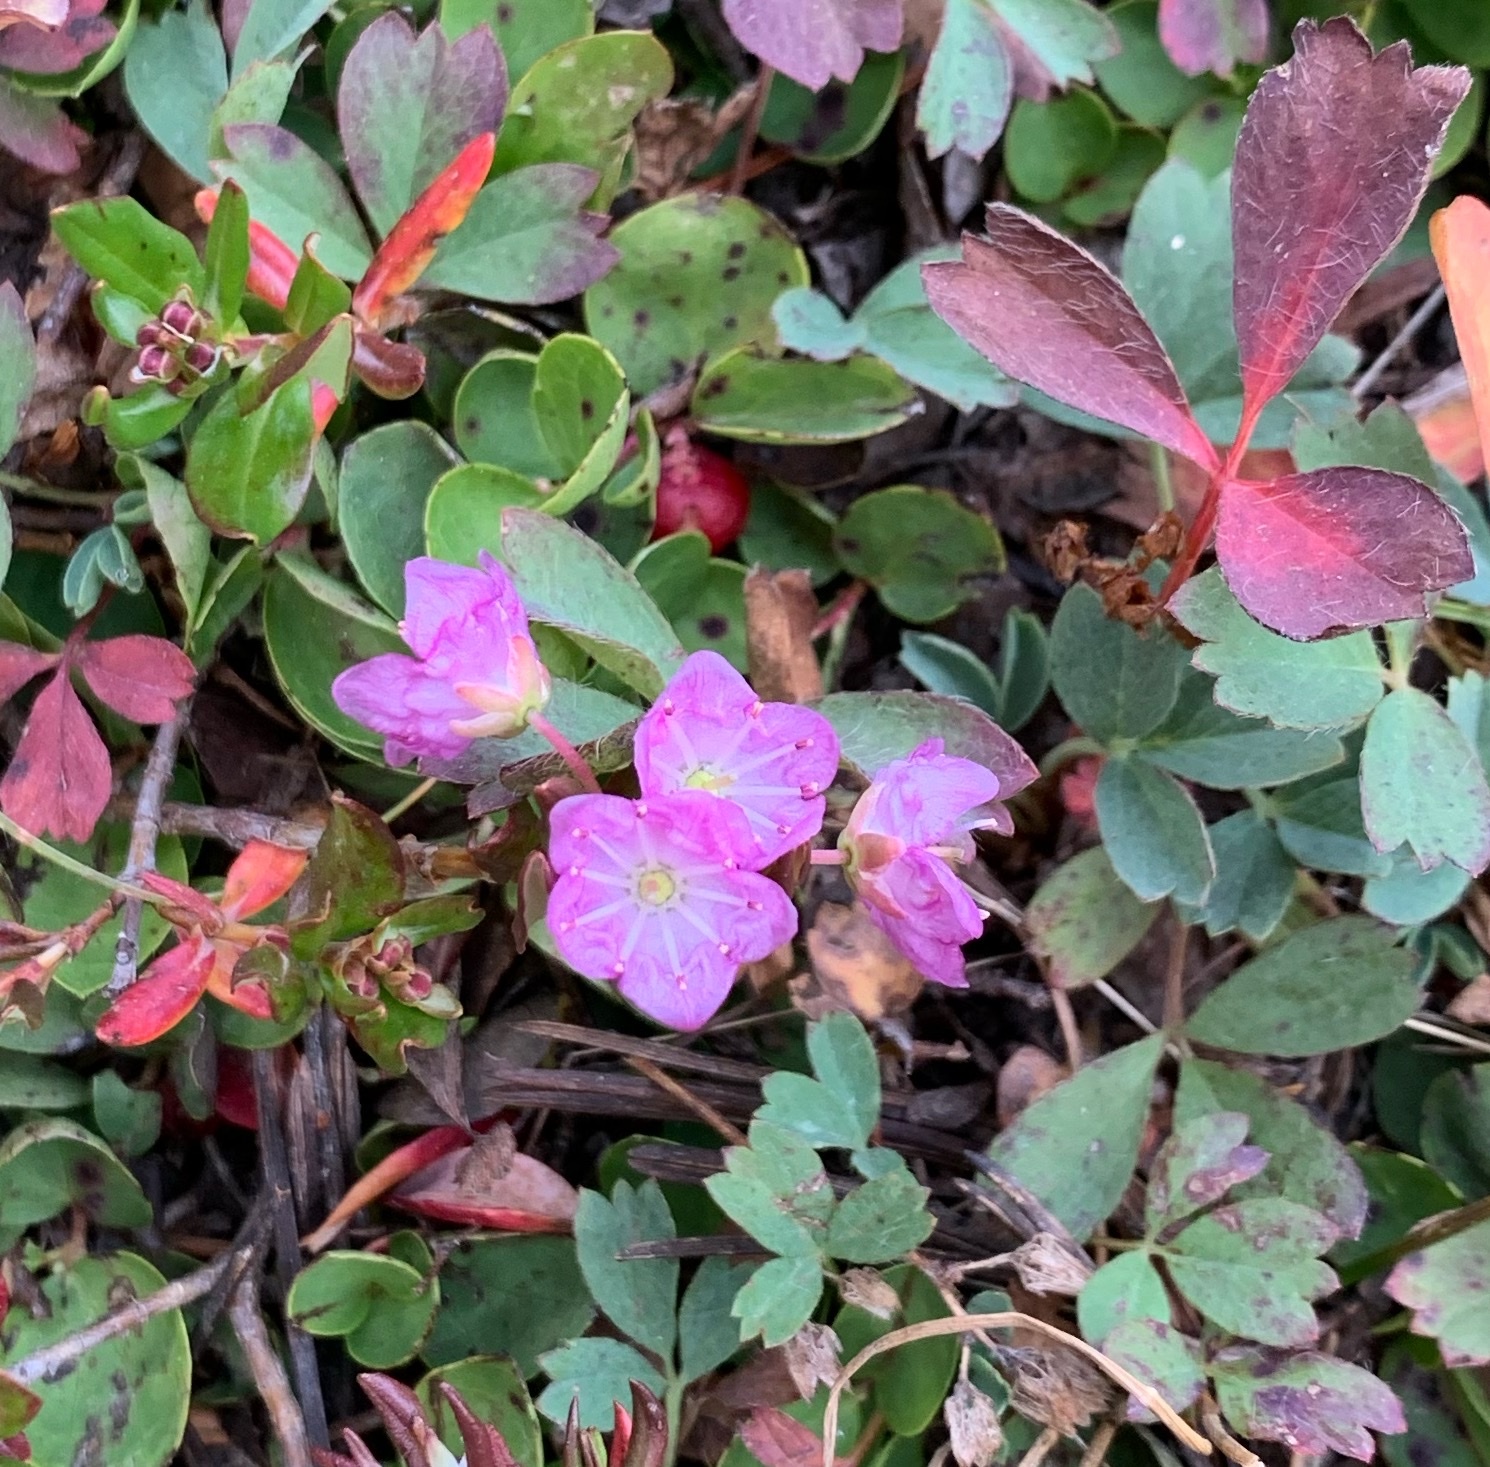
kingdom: Plantae
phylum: Tracheophyta
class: Magnoliopsida
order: Ericales
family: Ericaceae
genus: Kalmia
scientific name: Kalmia microphylla
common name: Alpine bog laurel
